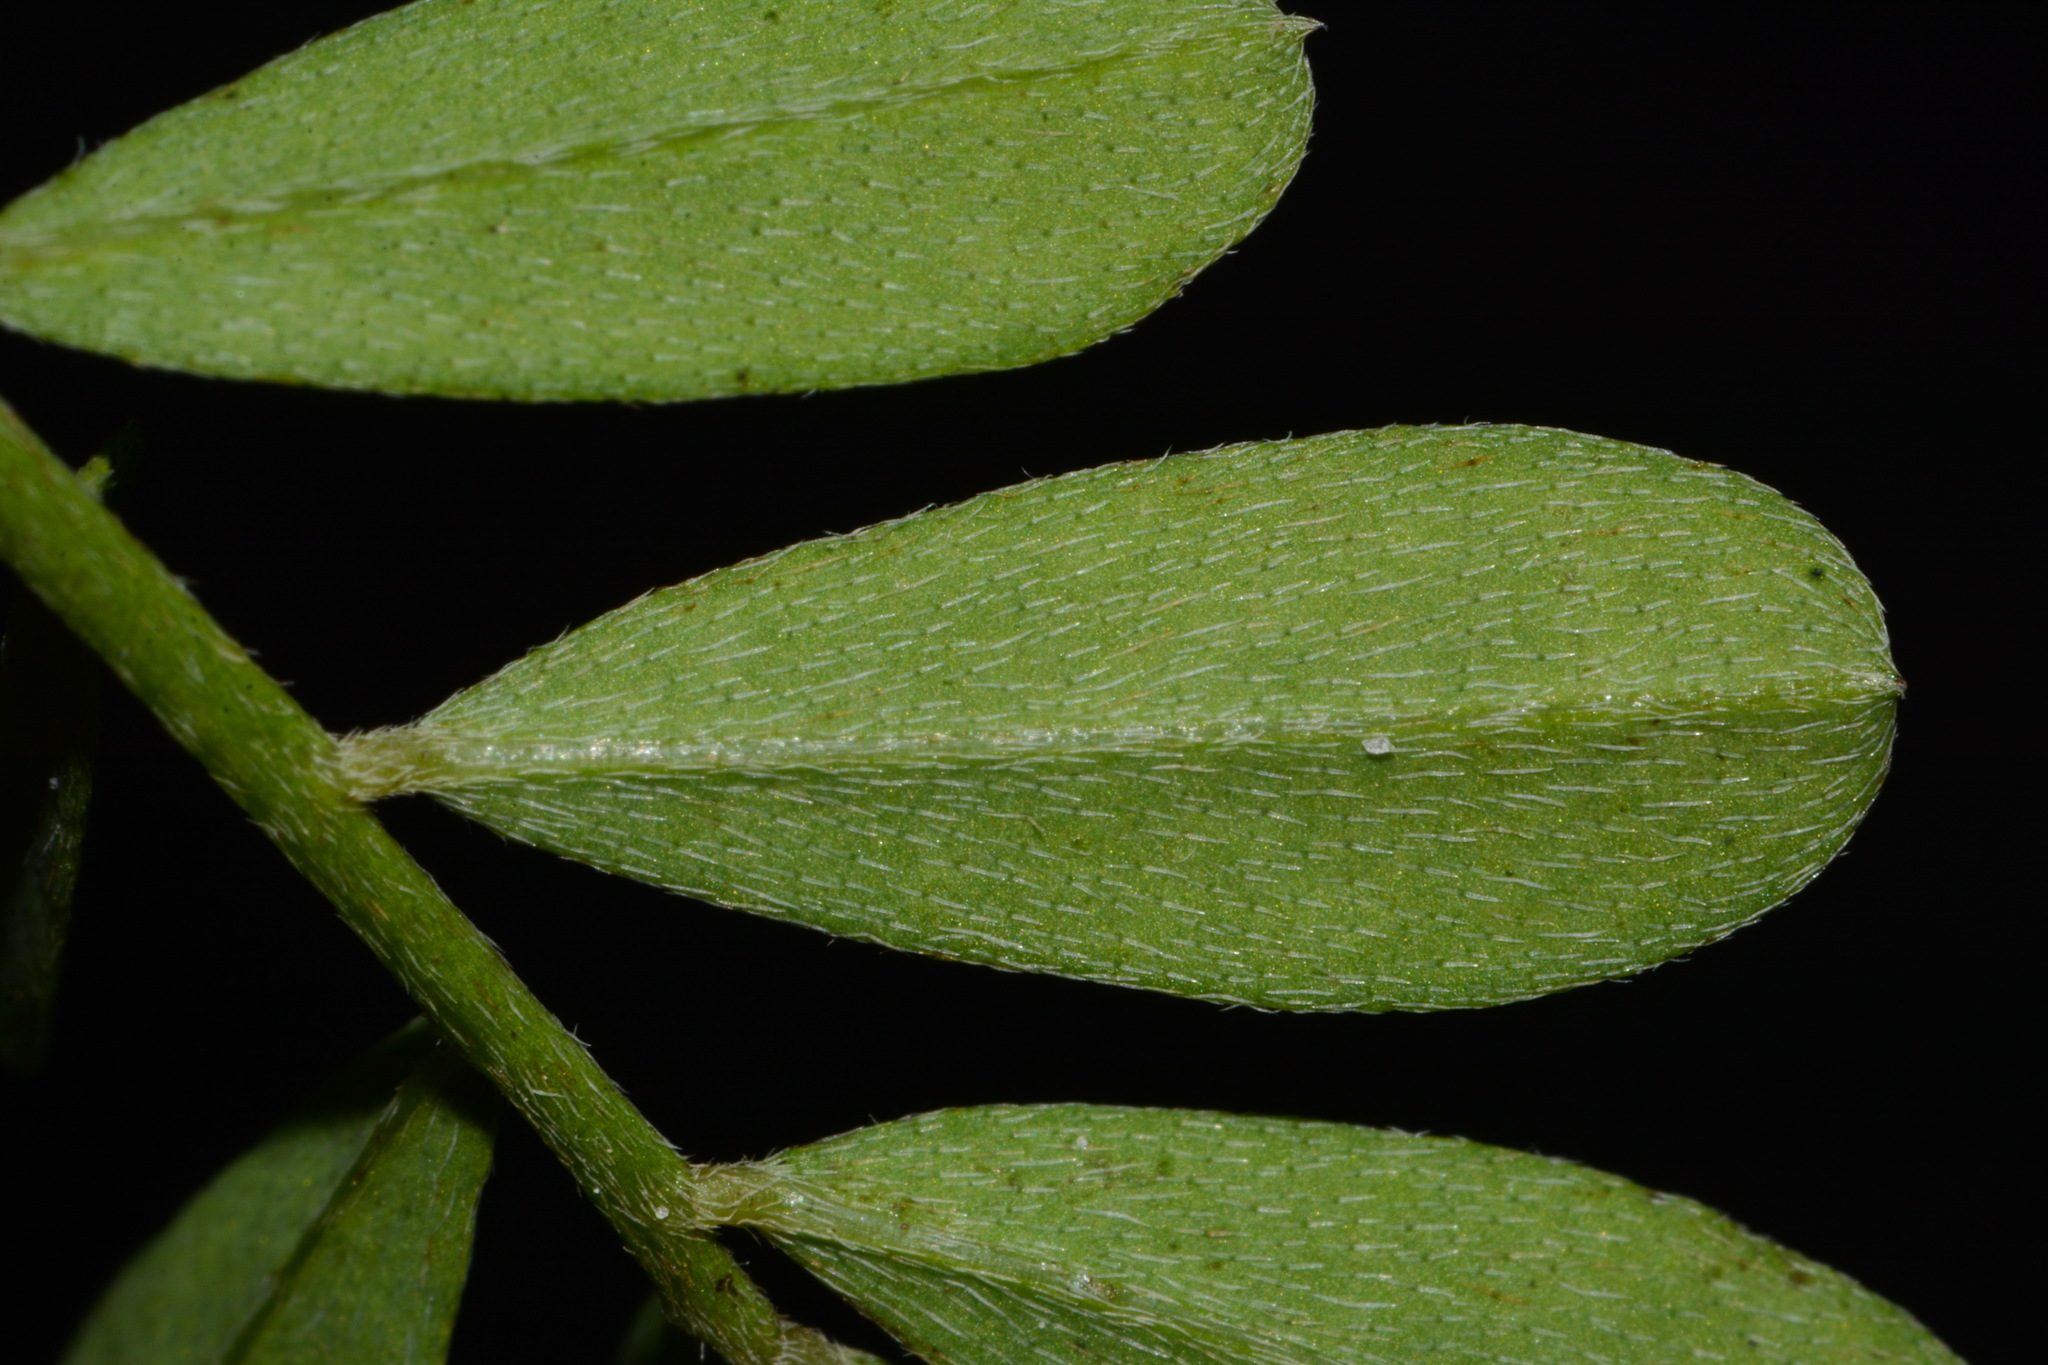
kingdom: Plantae
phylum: Tracheophyta
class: Magnoliopsida
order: Fabales
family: Fabaceae
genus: Indigofera
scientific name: Indigofera miniata
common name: Coast indigo
